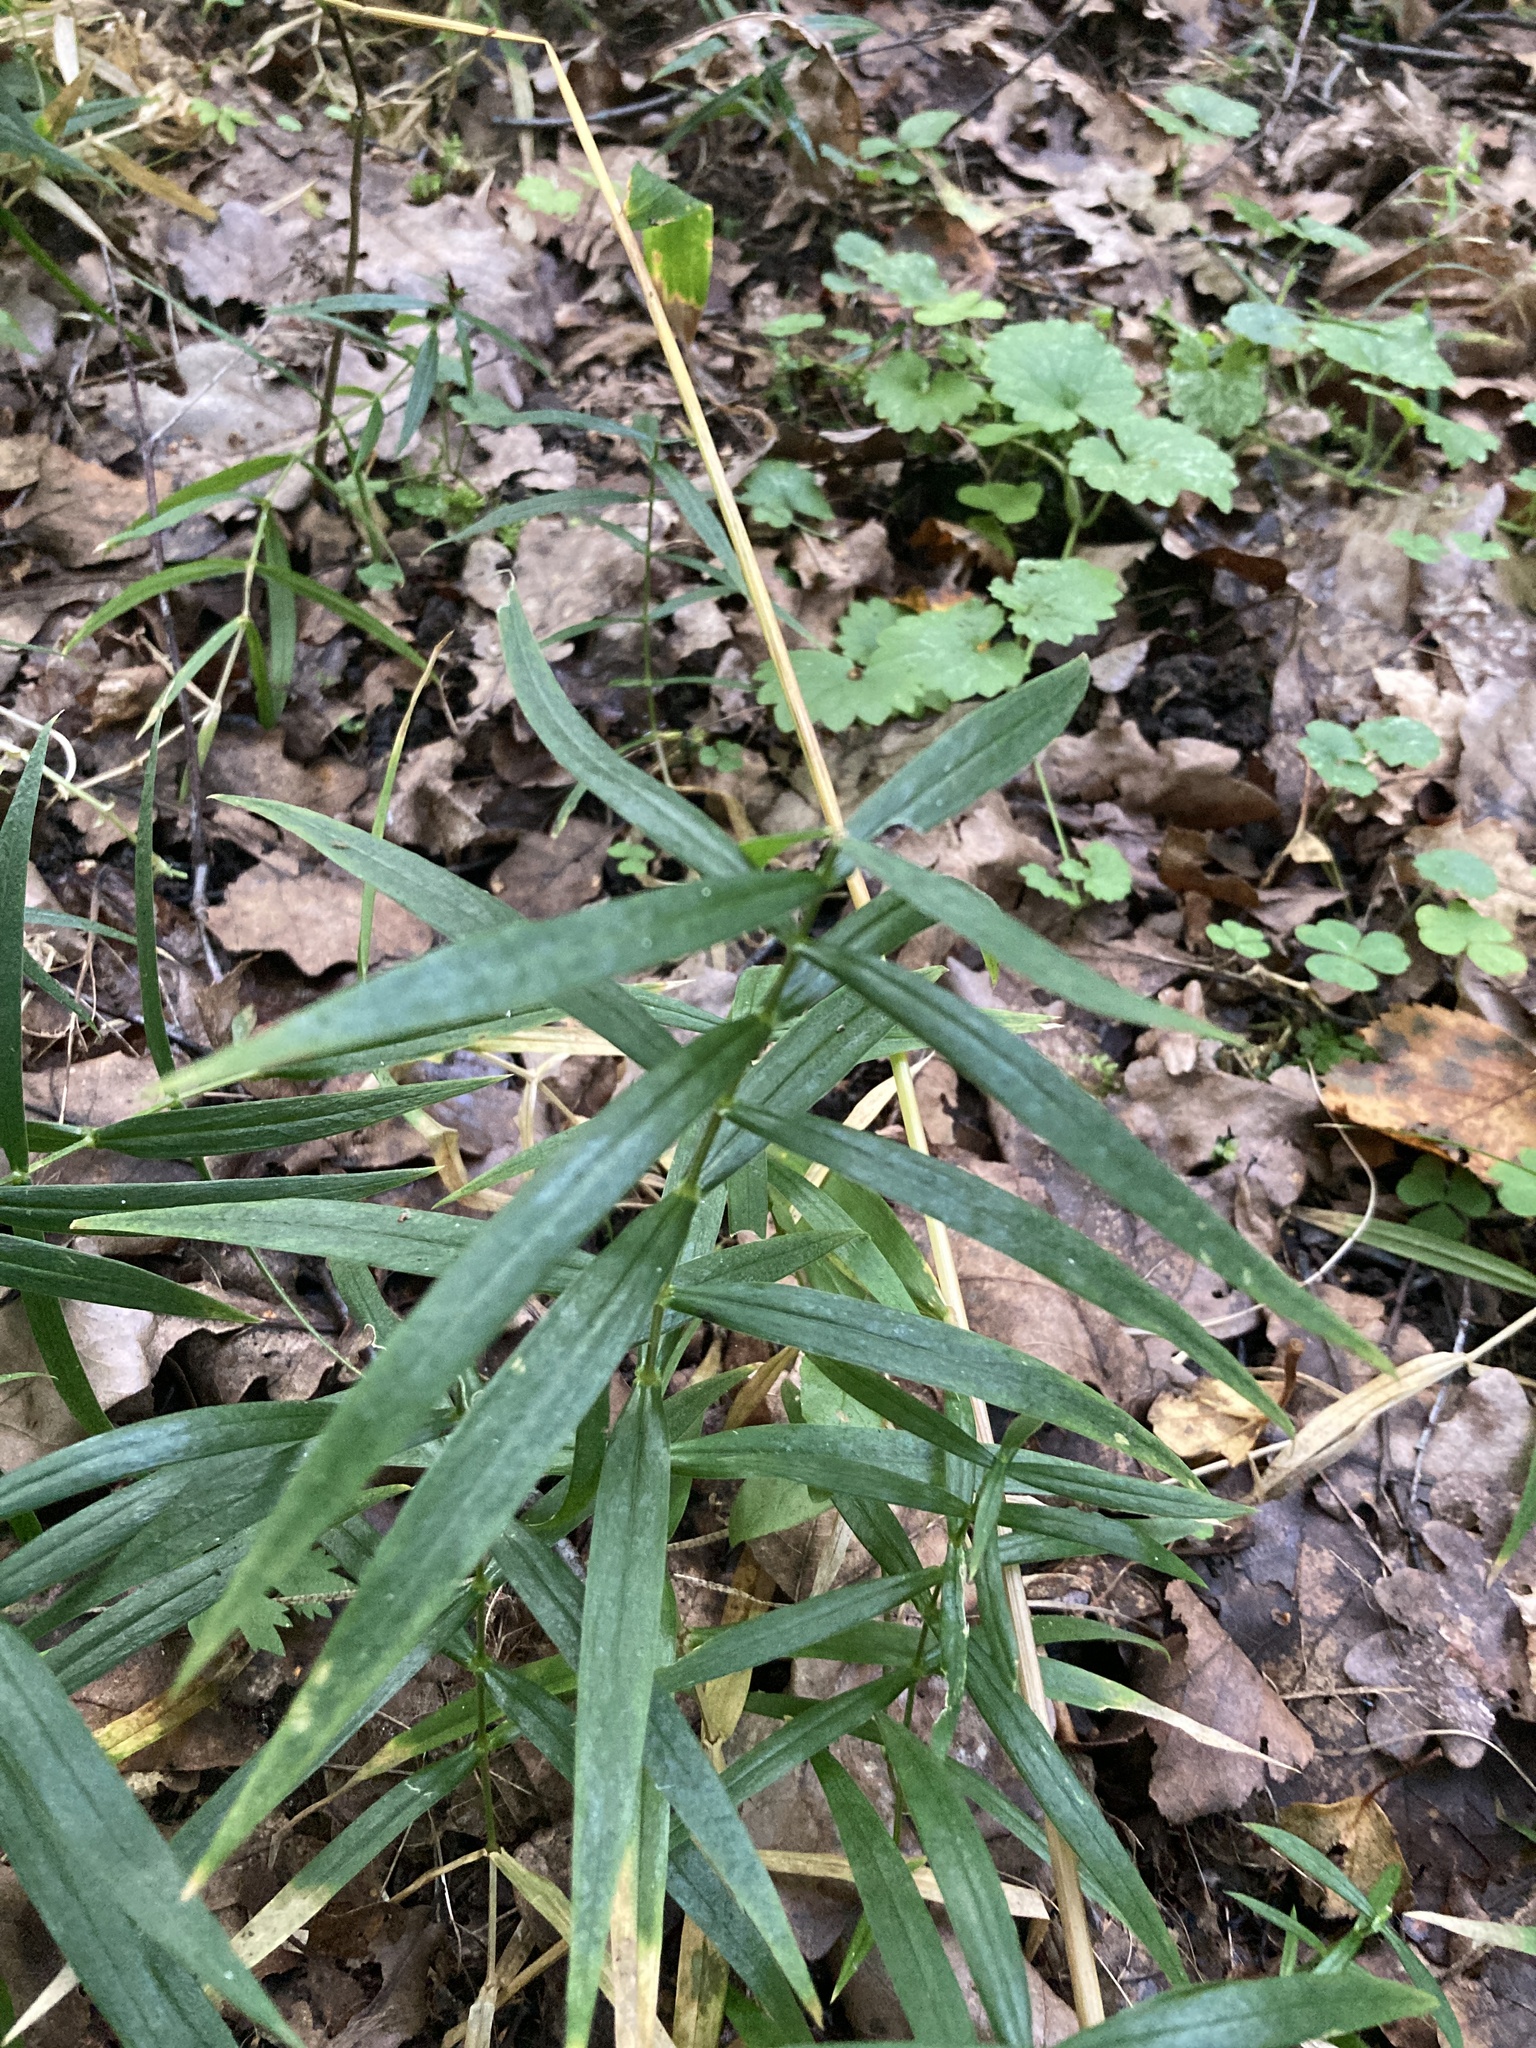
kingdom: Plantae
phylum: Tracheophyta
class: Magnoliopsida
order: Caryophyllales
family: Caryophyllaceae
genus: Rabelera
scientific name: Rabelera holostea
